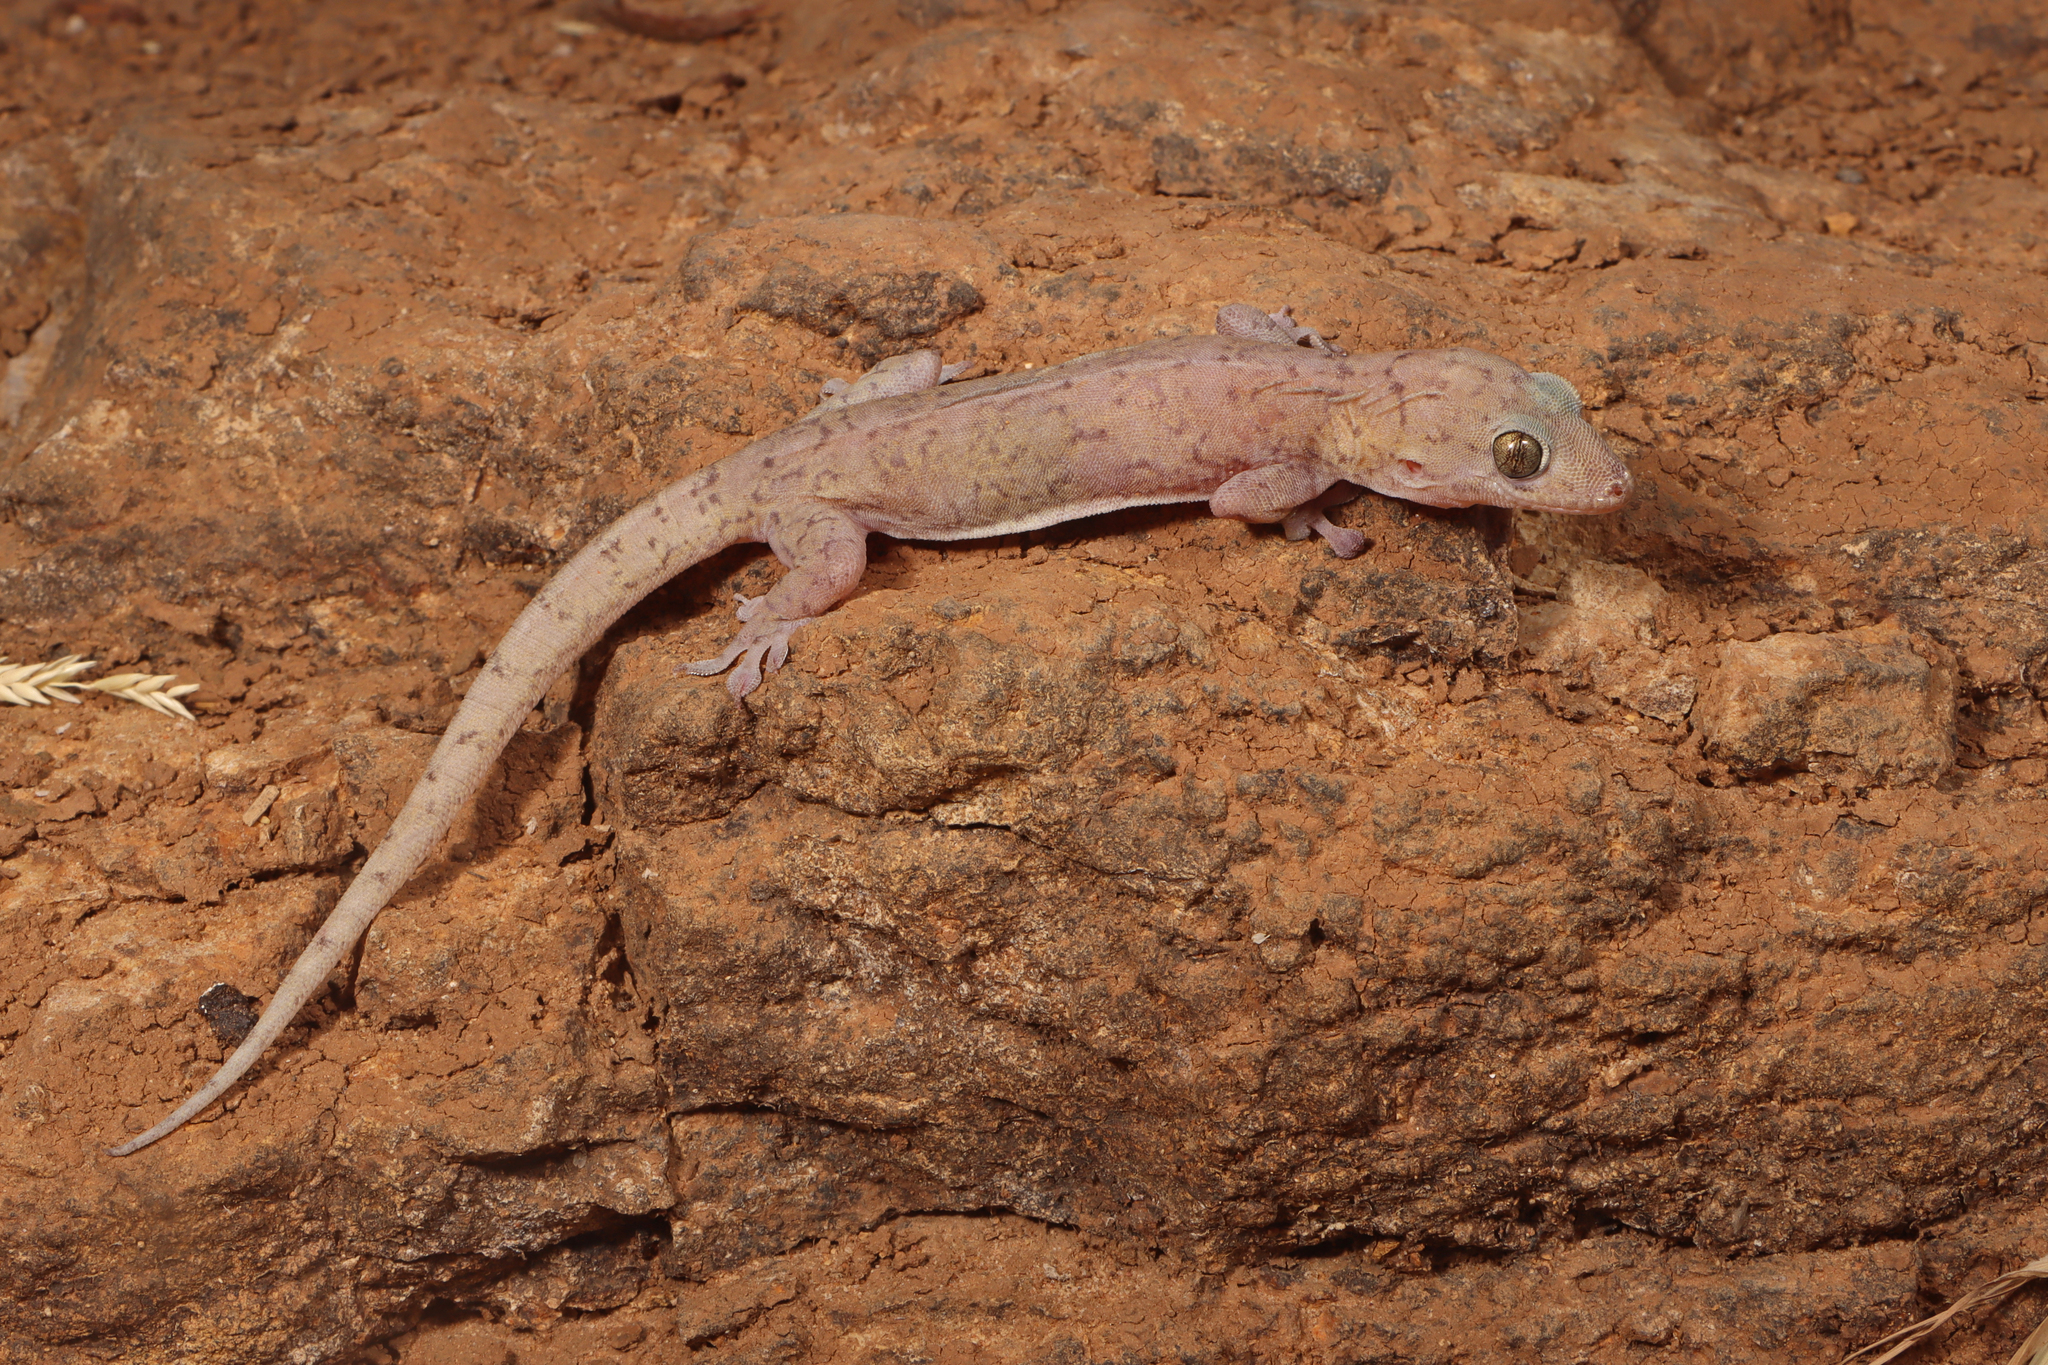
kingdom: Animalia
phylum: Chordata
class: Squamata
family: Gekkonidae
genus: Gehyra
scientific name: Gehyra robusta
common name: Robust dtella
